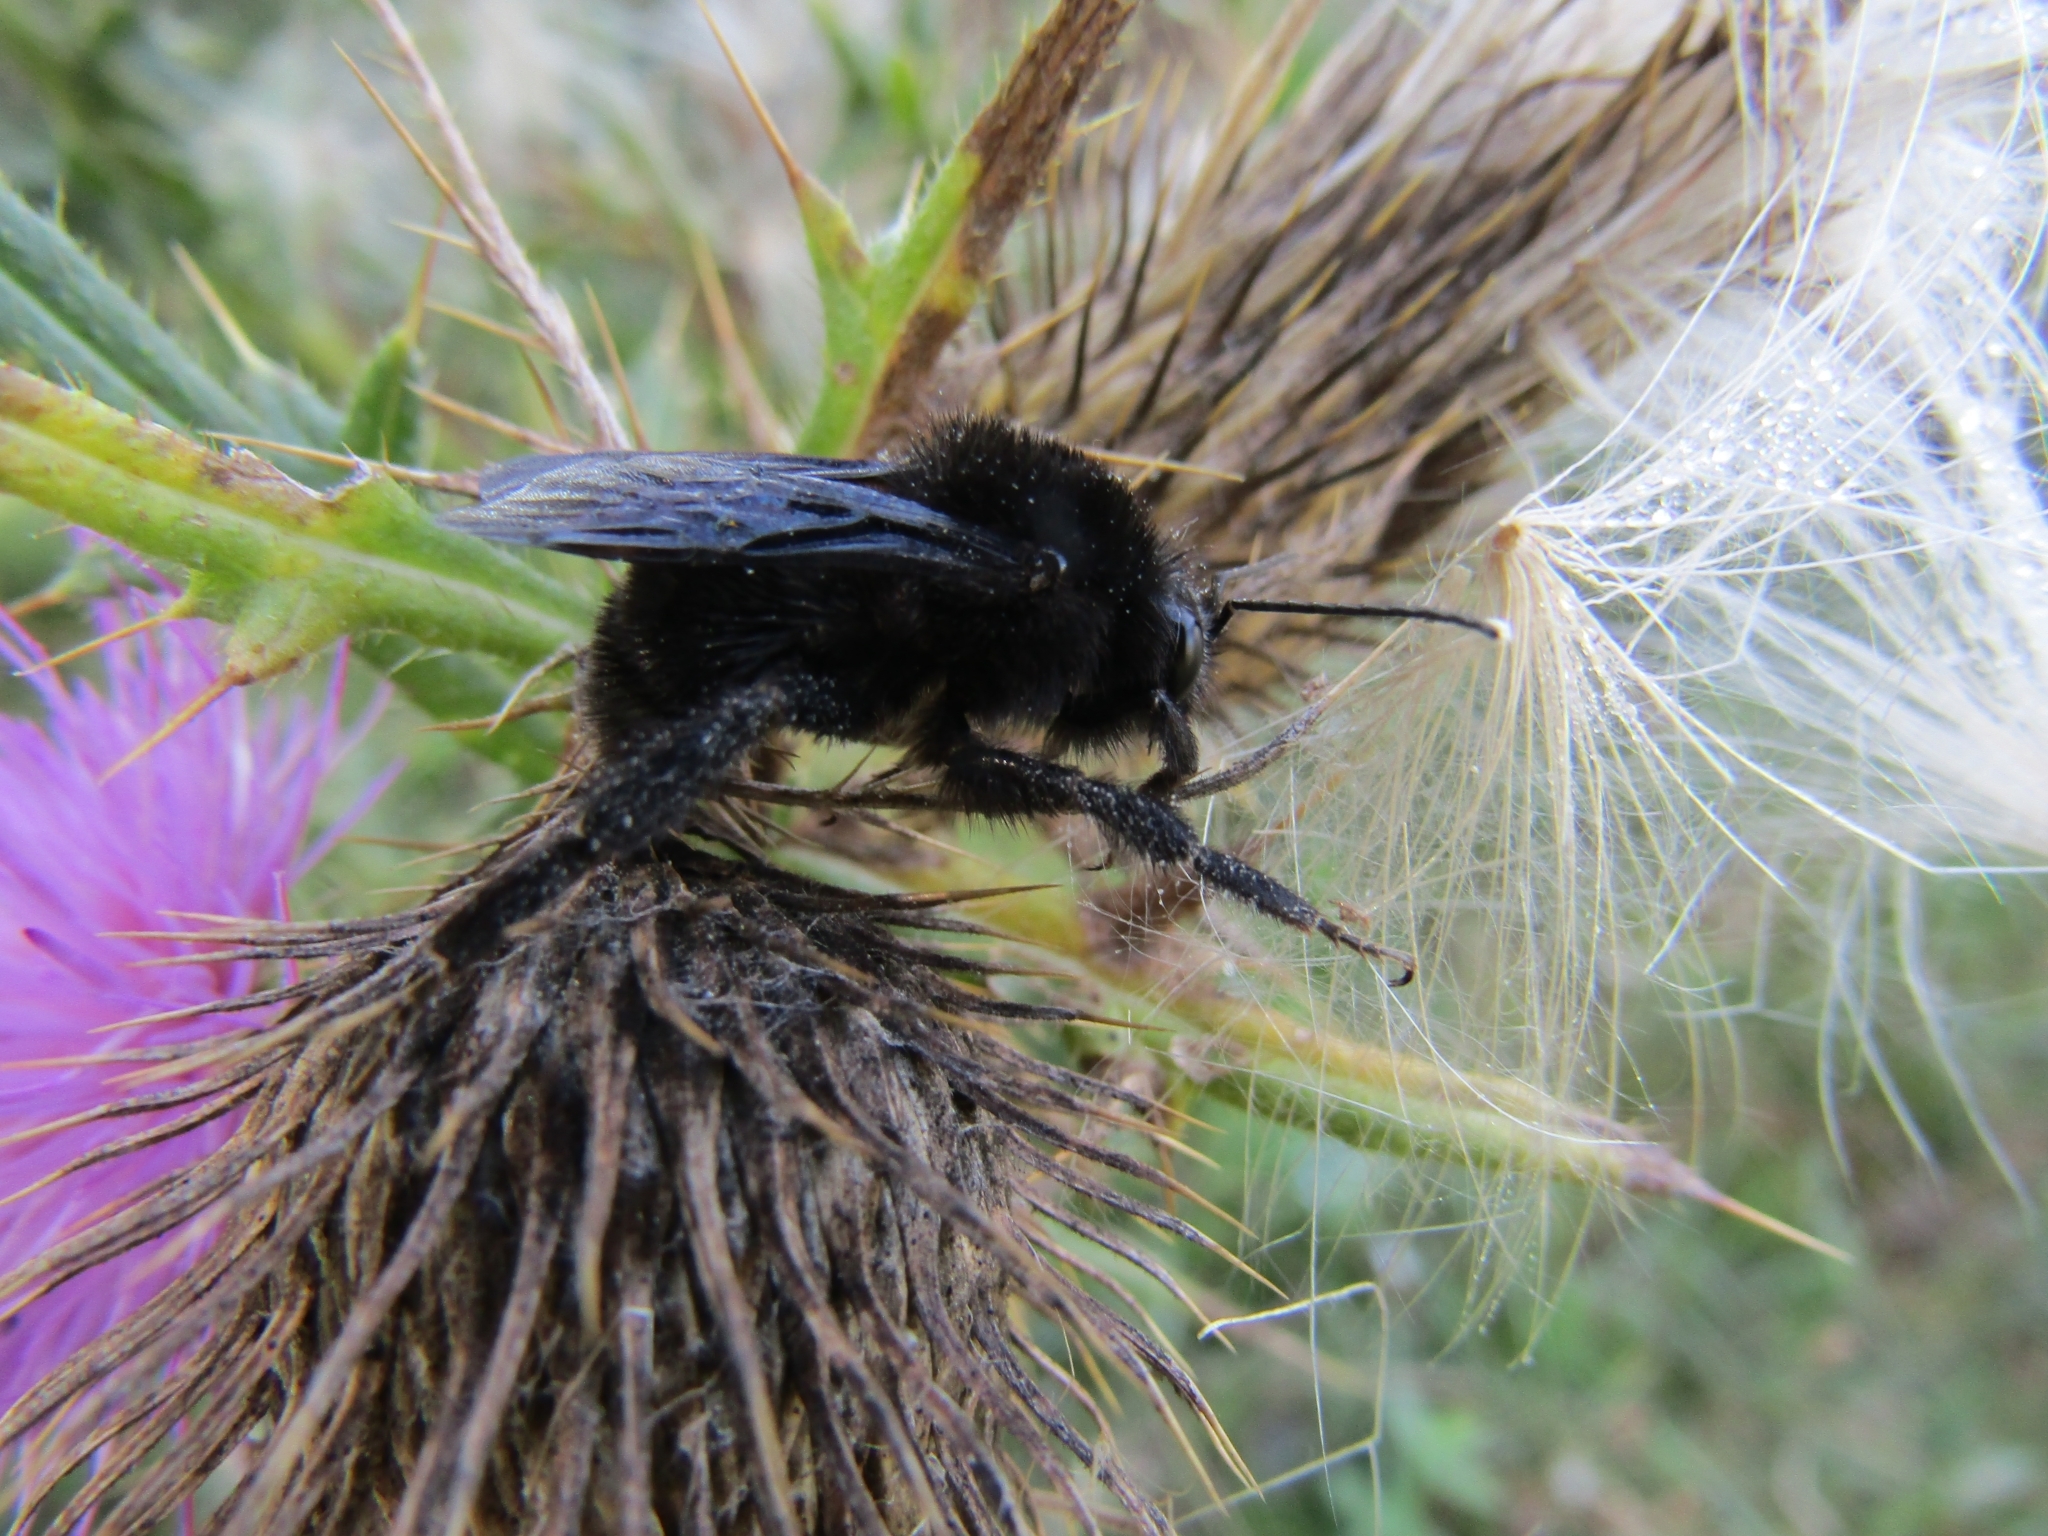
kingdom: Animalia
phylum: Arthropoda
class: Insecta
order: Hymenoptera
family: Apidae
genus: Bombus
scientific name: Bombus pauloensis
